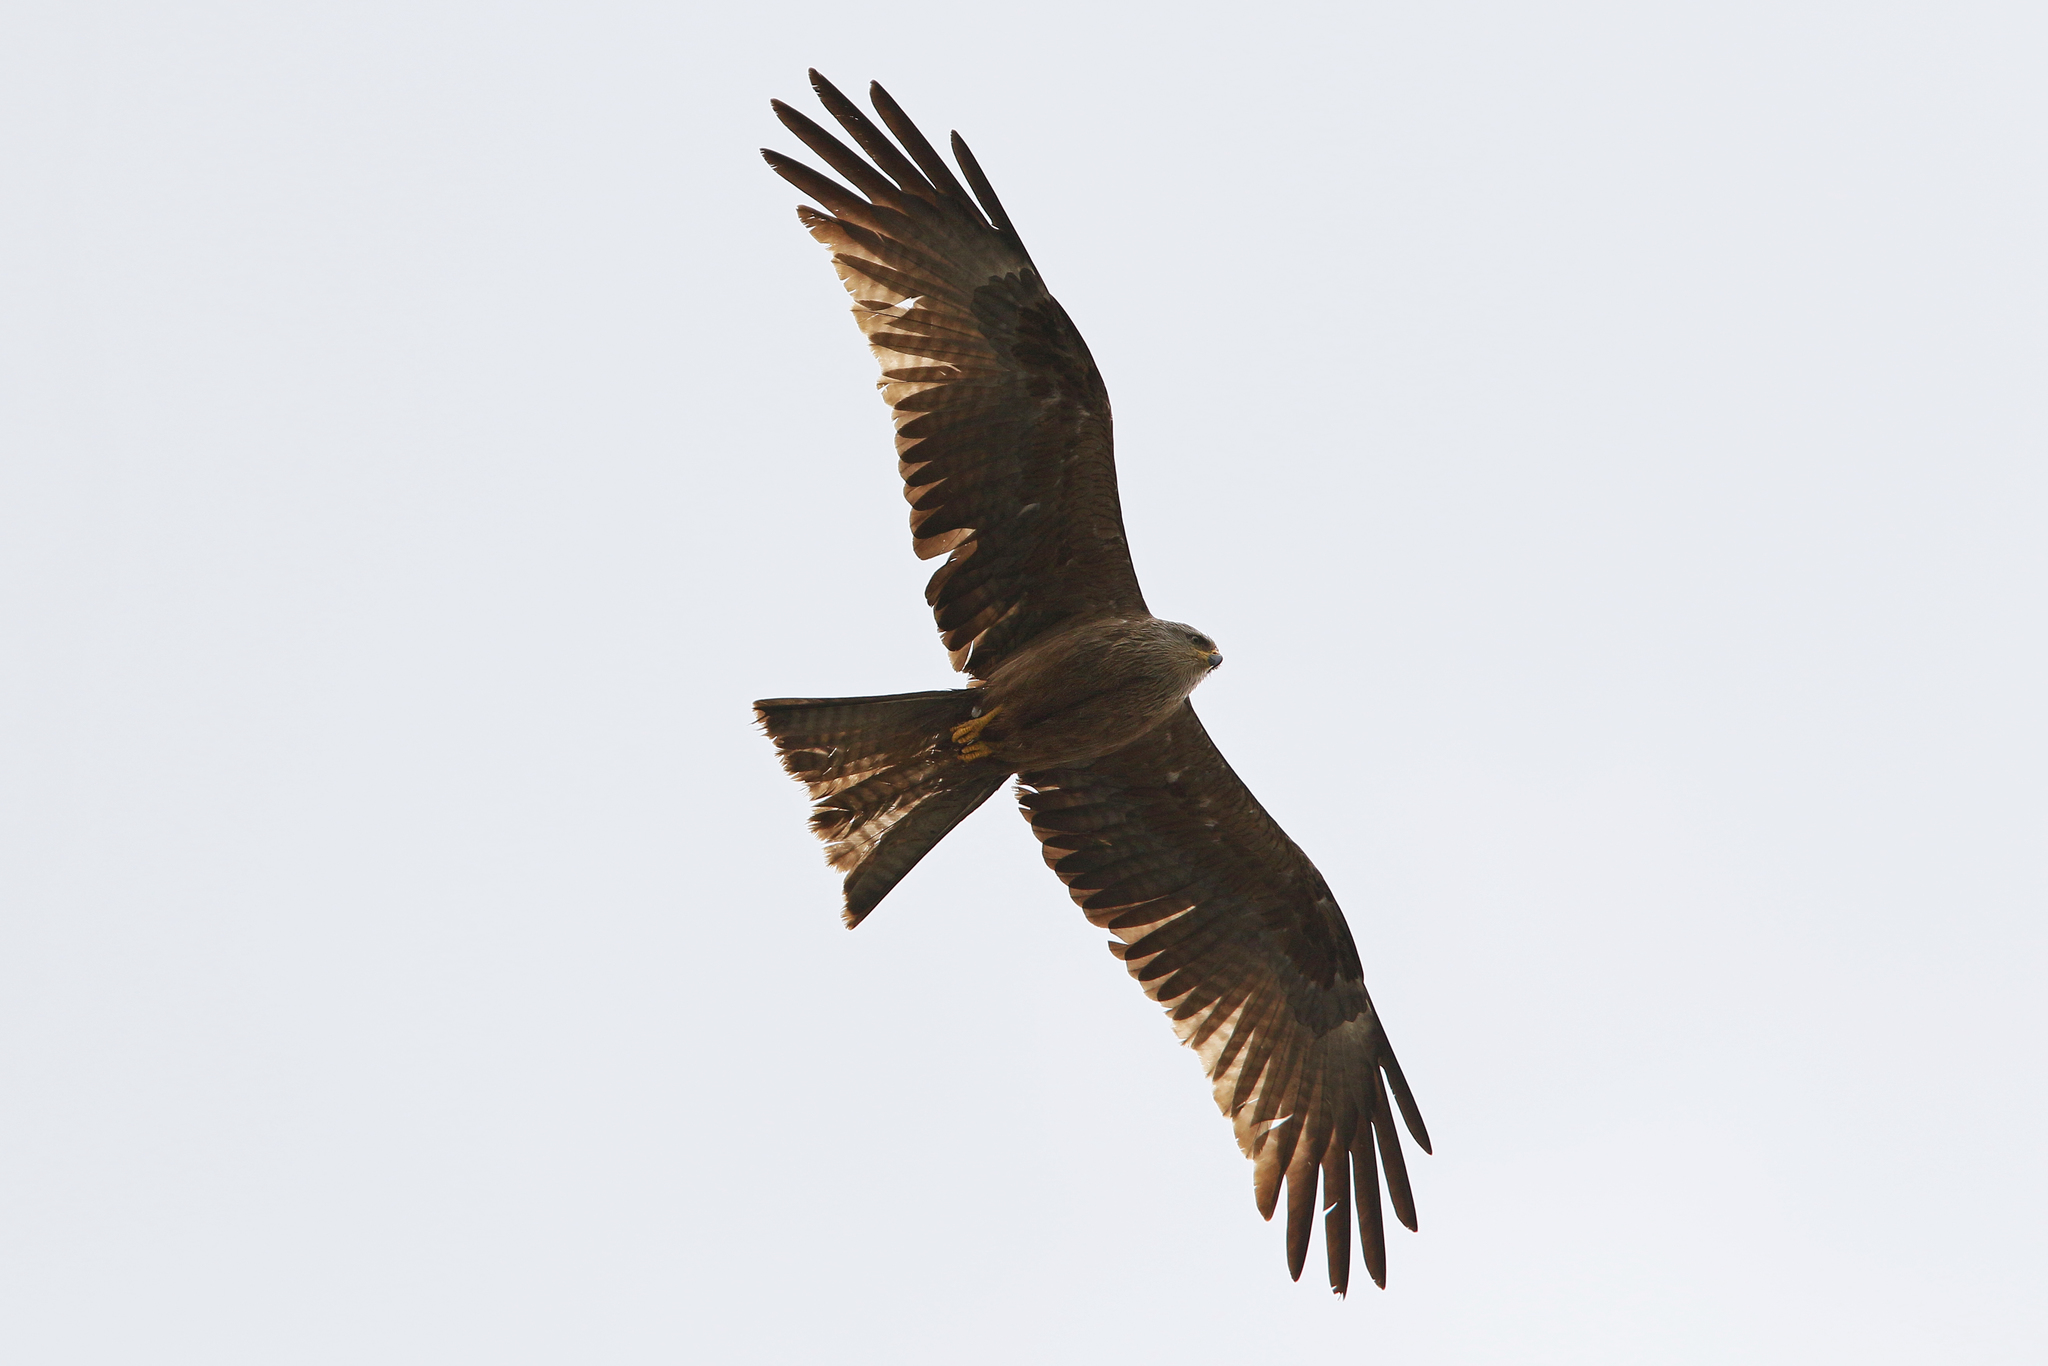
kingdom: Animalia
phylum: Chordata
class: Aves
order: Accipitriformes
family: Accipitridae
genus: Milvus
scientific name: Milvus migrans
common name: Black kite
